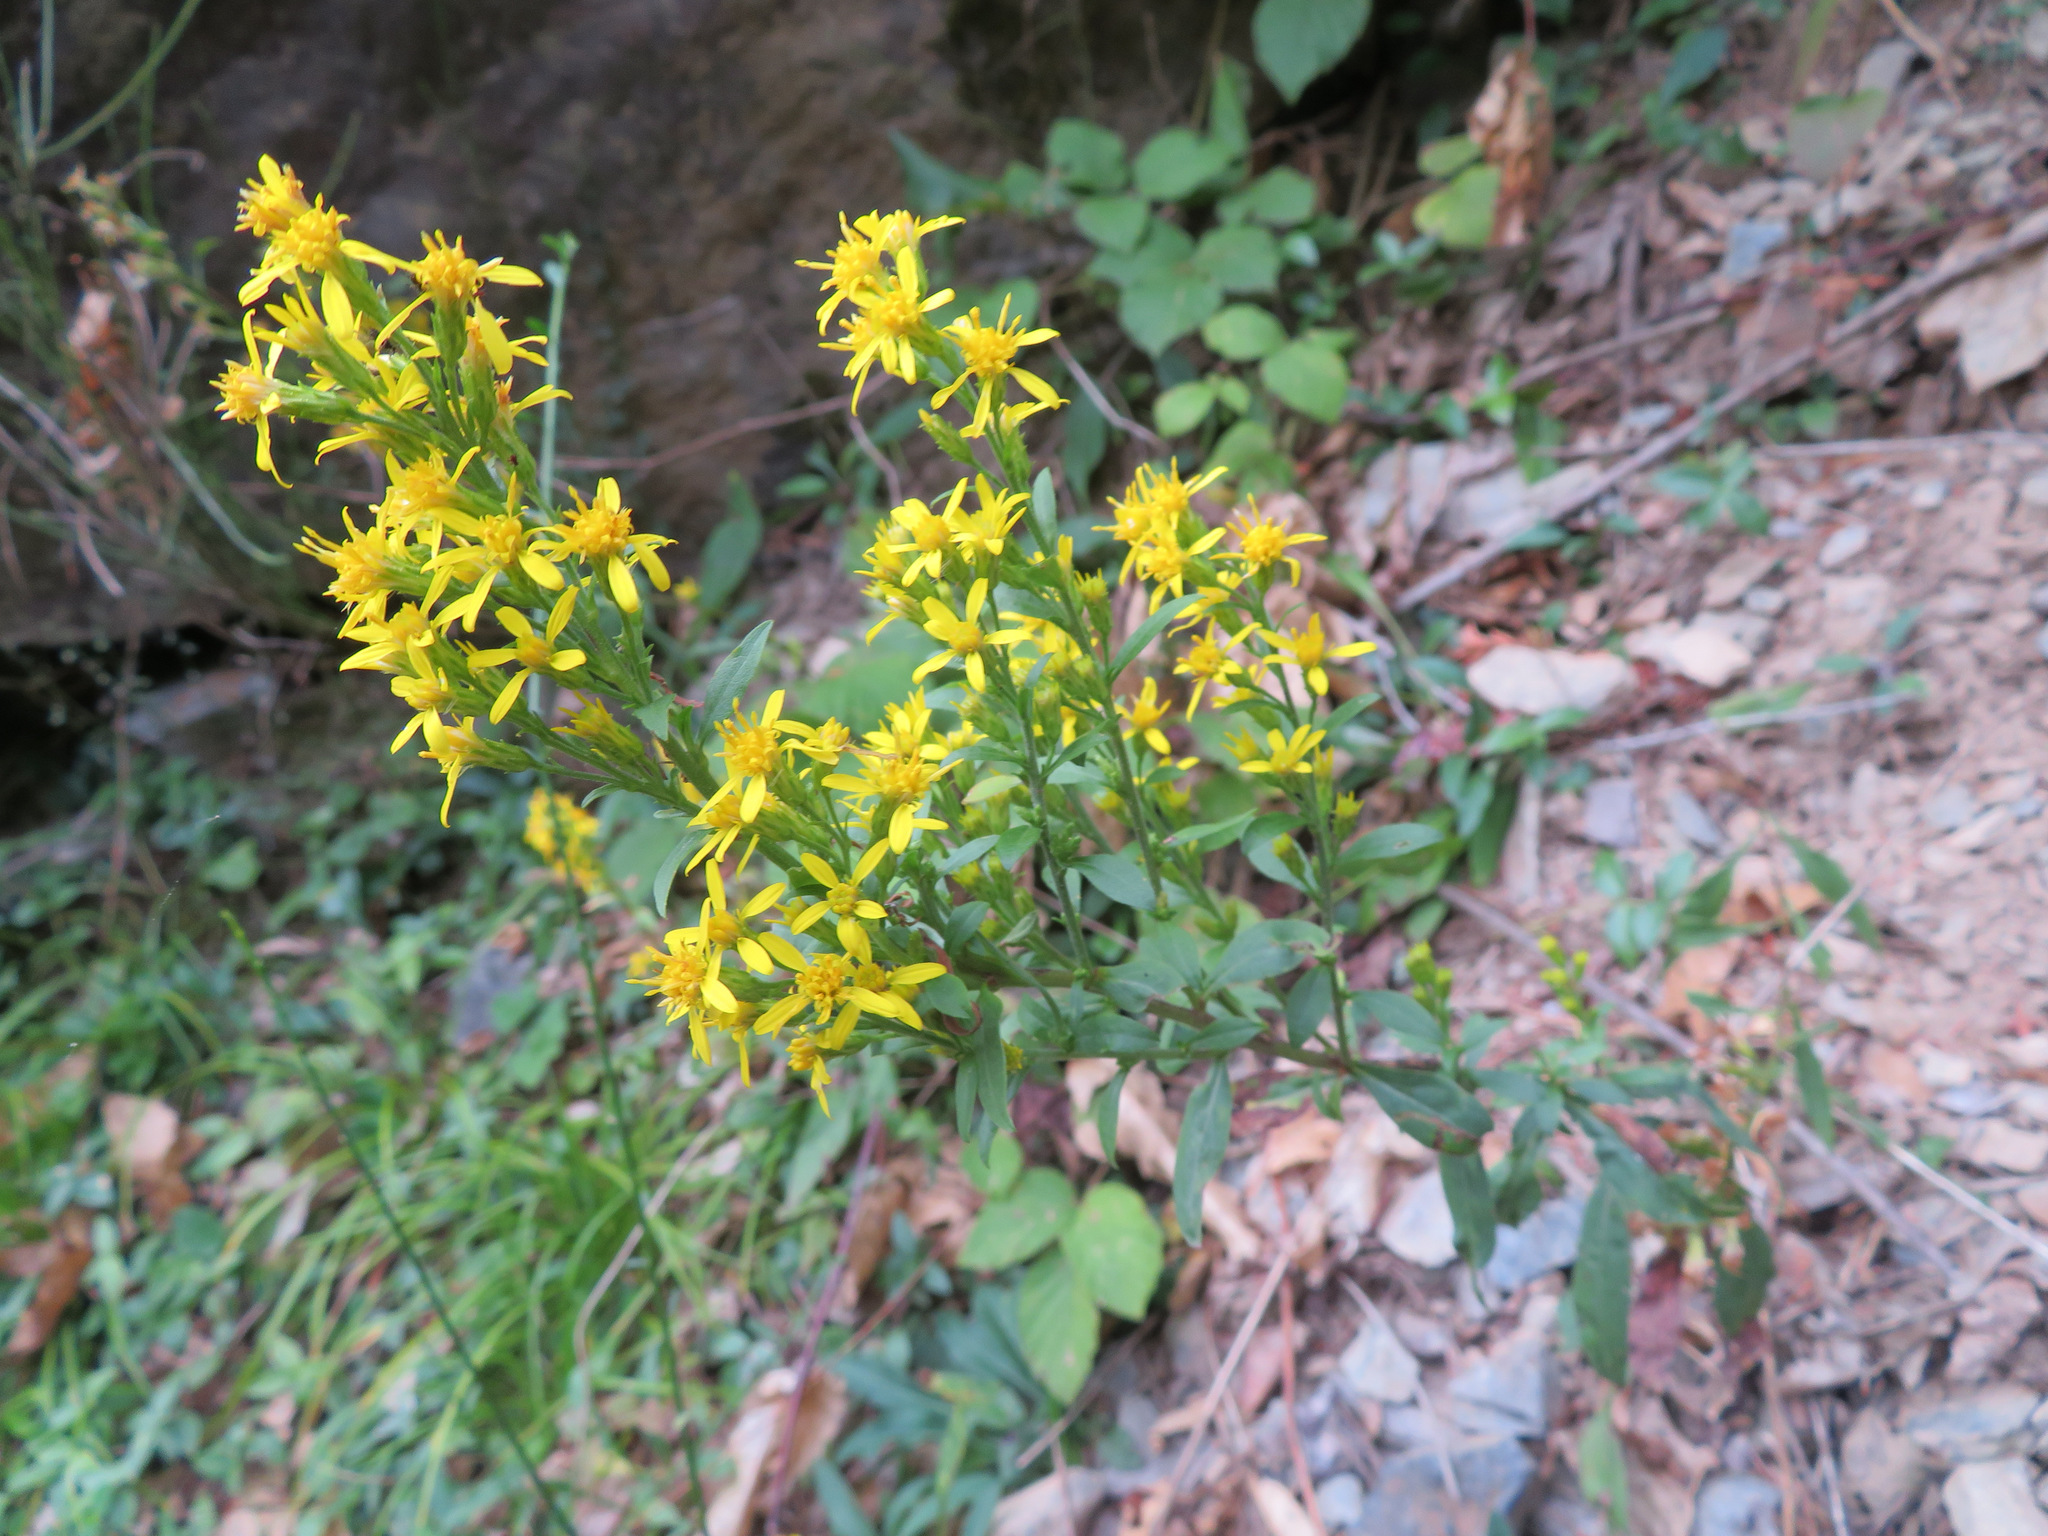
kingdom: Plantae
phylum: Tracheophyta
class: Magnoliopsida
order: Asterales
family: Asteraceae
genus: Solidago
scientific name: Solidago virgaurea
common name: Goldenrod
